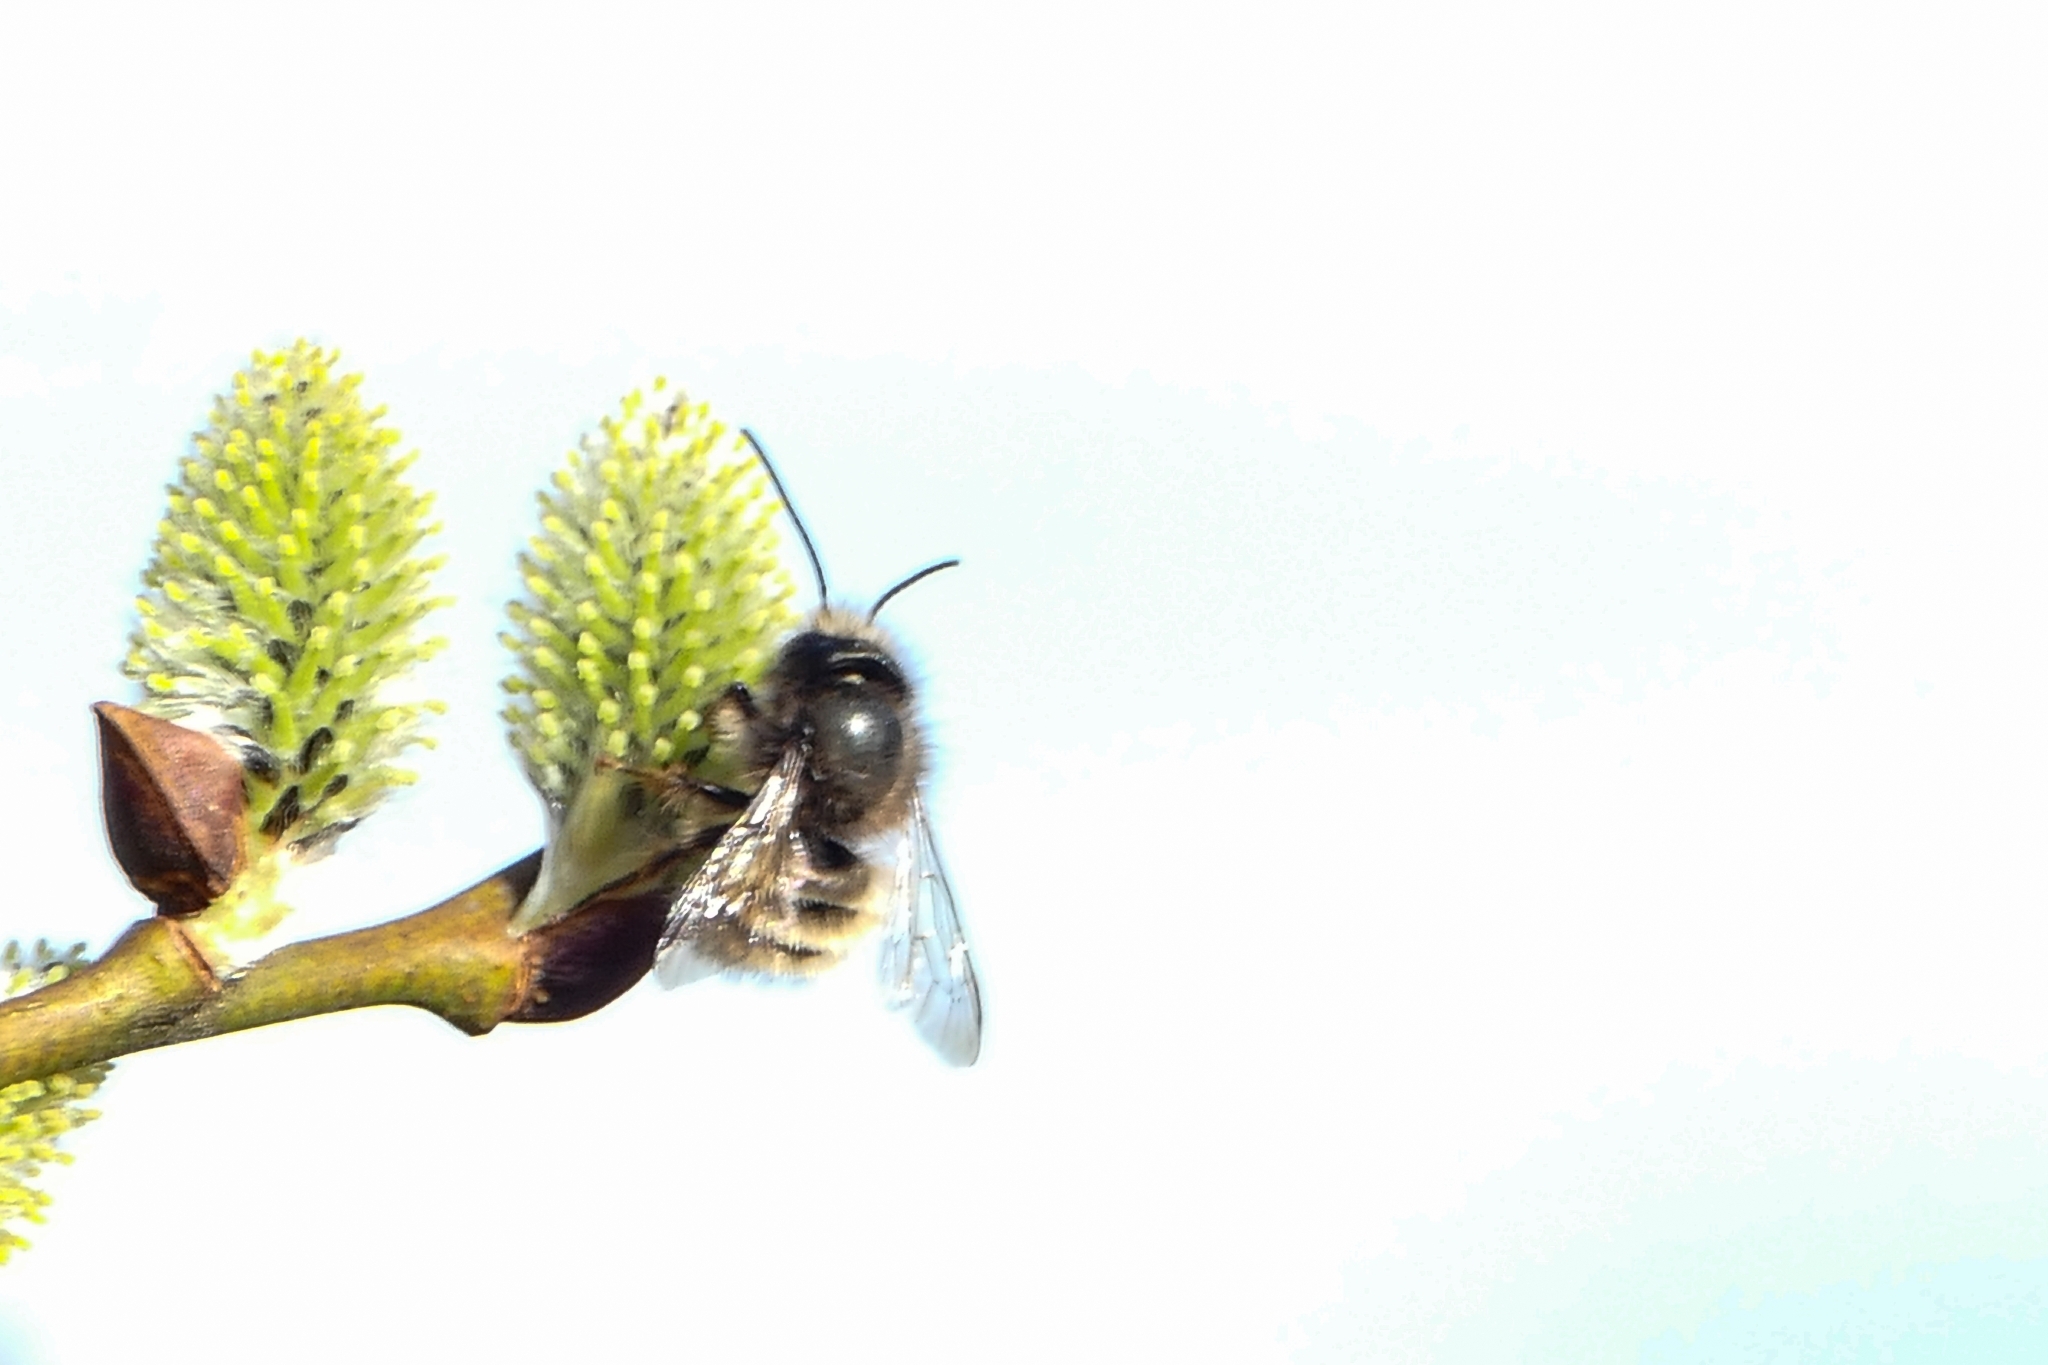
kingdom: Animalia
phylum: Arthropoda
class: Insecta
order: Hymenoptera
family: Megachilidae
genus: Osmia
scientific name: Osmia cornuta
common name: Mason bee
